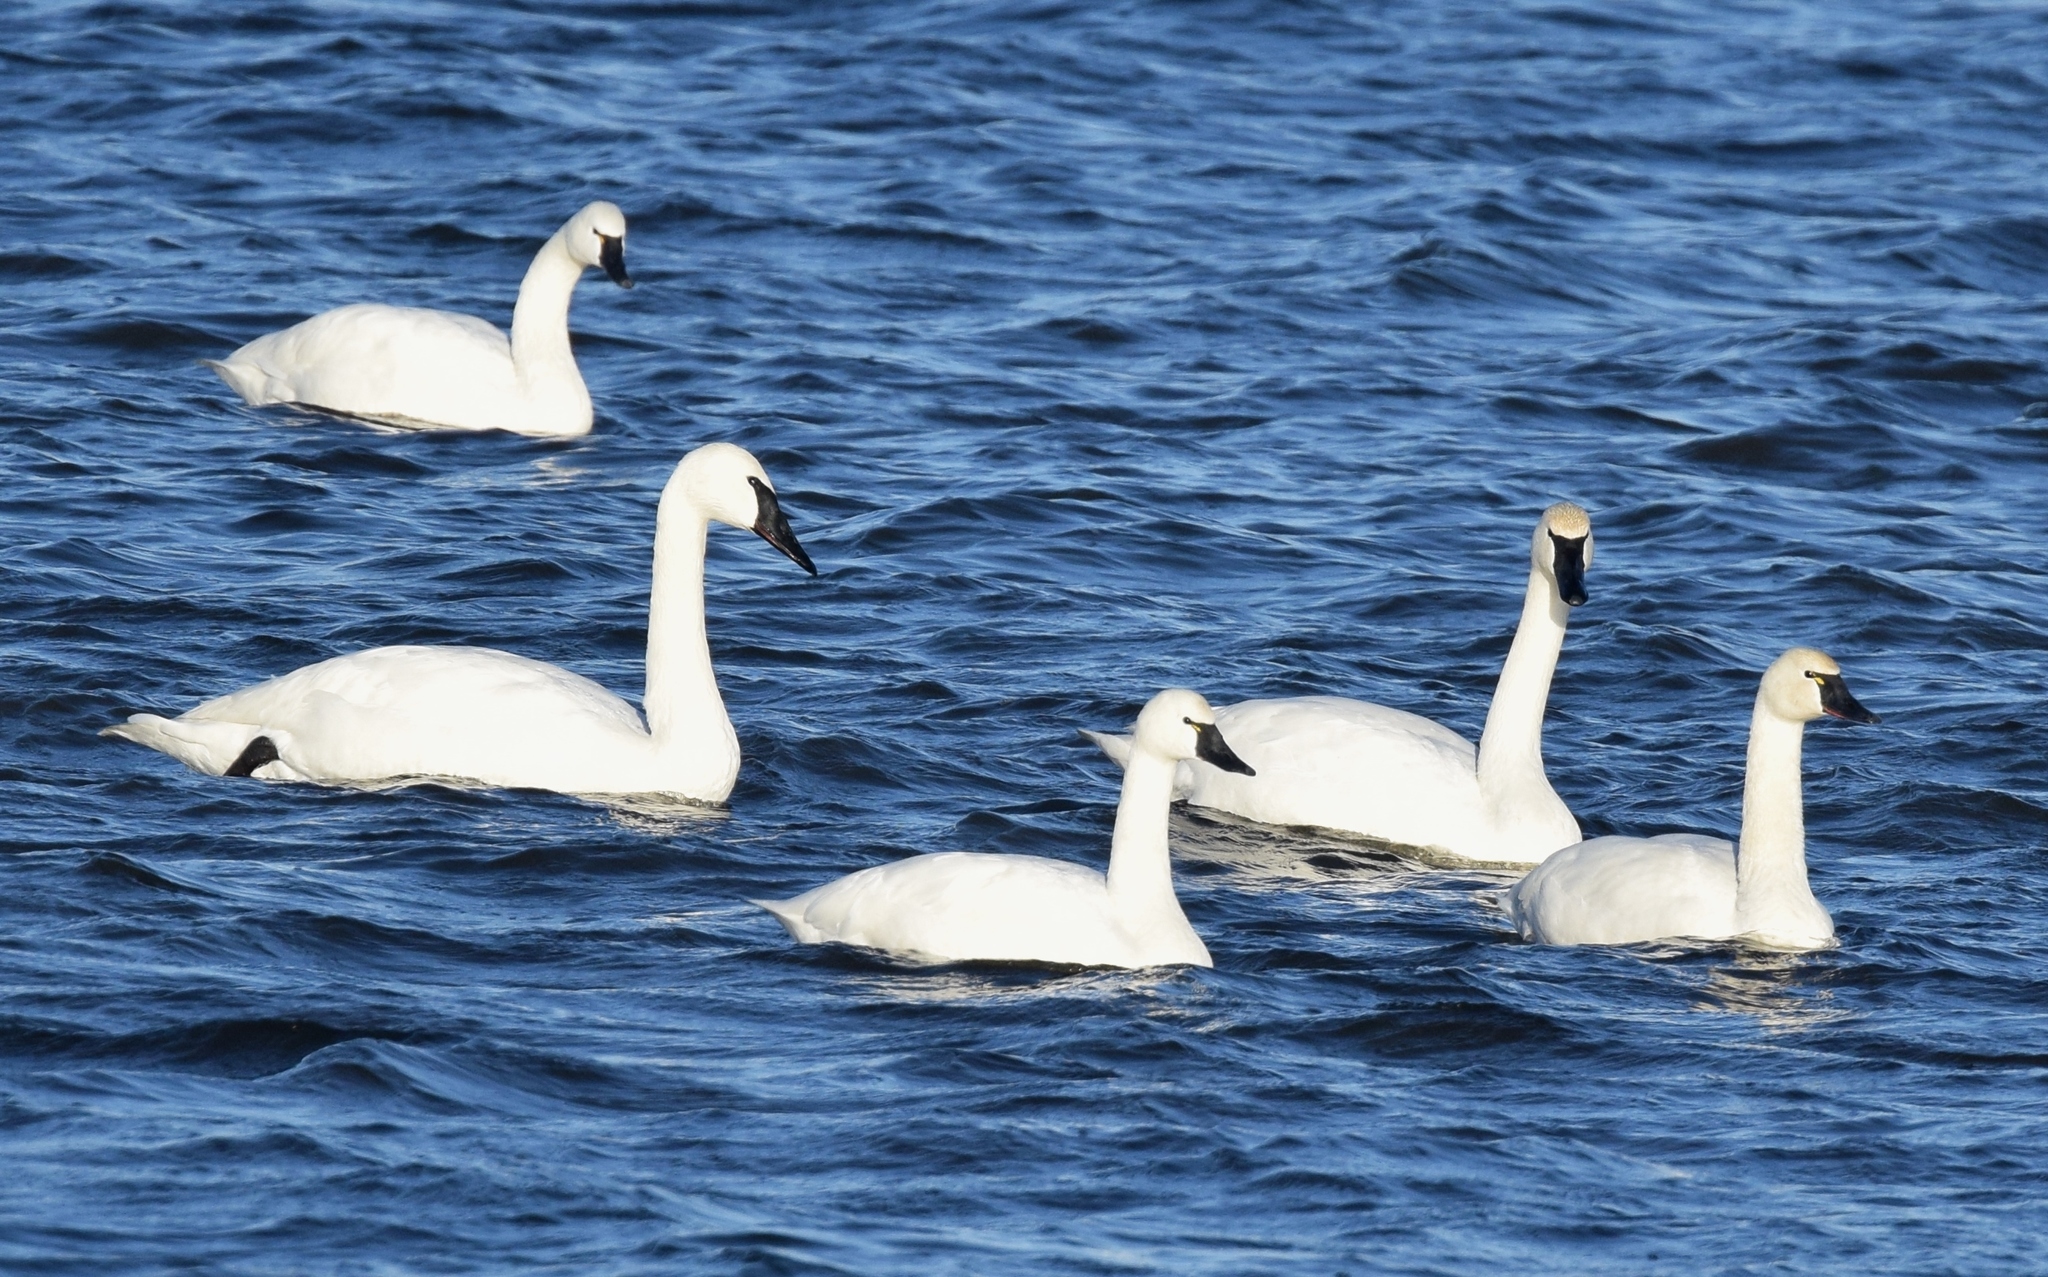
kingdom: Animalia
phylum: Chordata
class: Aves
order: Anseriformes
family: Anatidae
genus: Cygnus
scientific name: Cygnus buccinator
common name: Trumpeter swan
